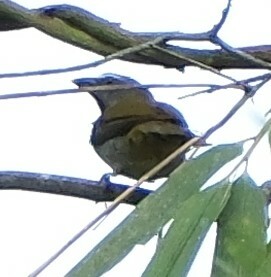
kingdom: Animalia
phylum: Chordata
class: Aves
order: Passeriformes
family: Thraupidae
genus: Saltator
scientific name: Saltator maximus
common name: Buff-throated saltator
